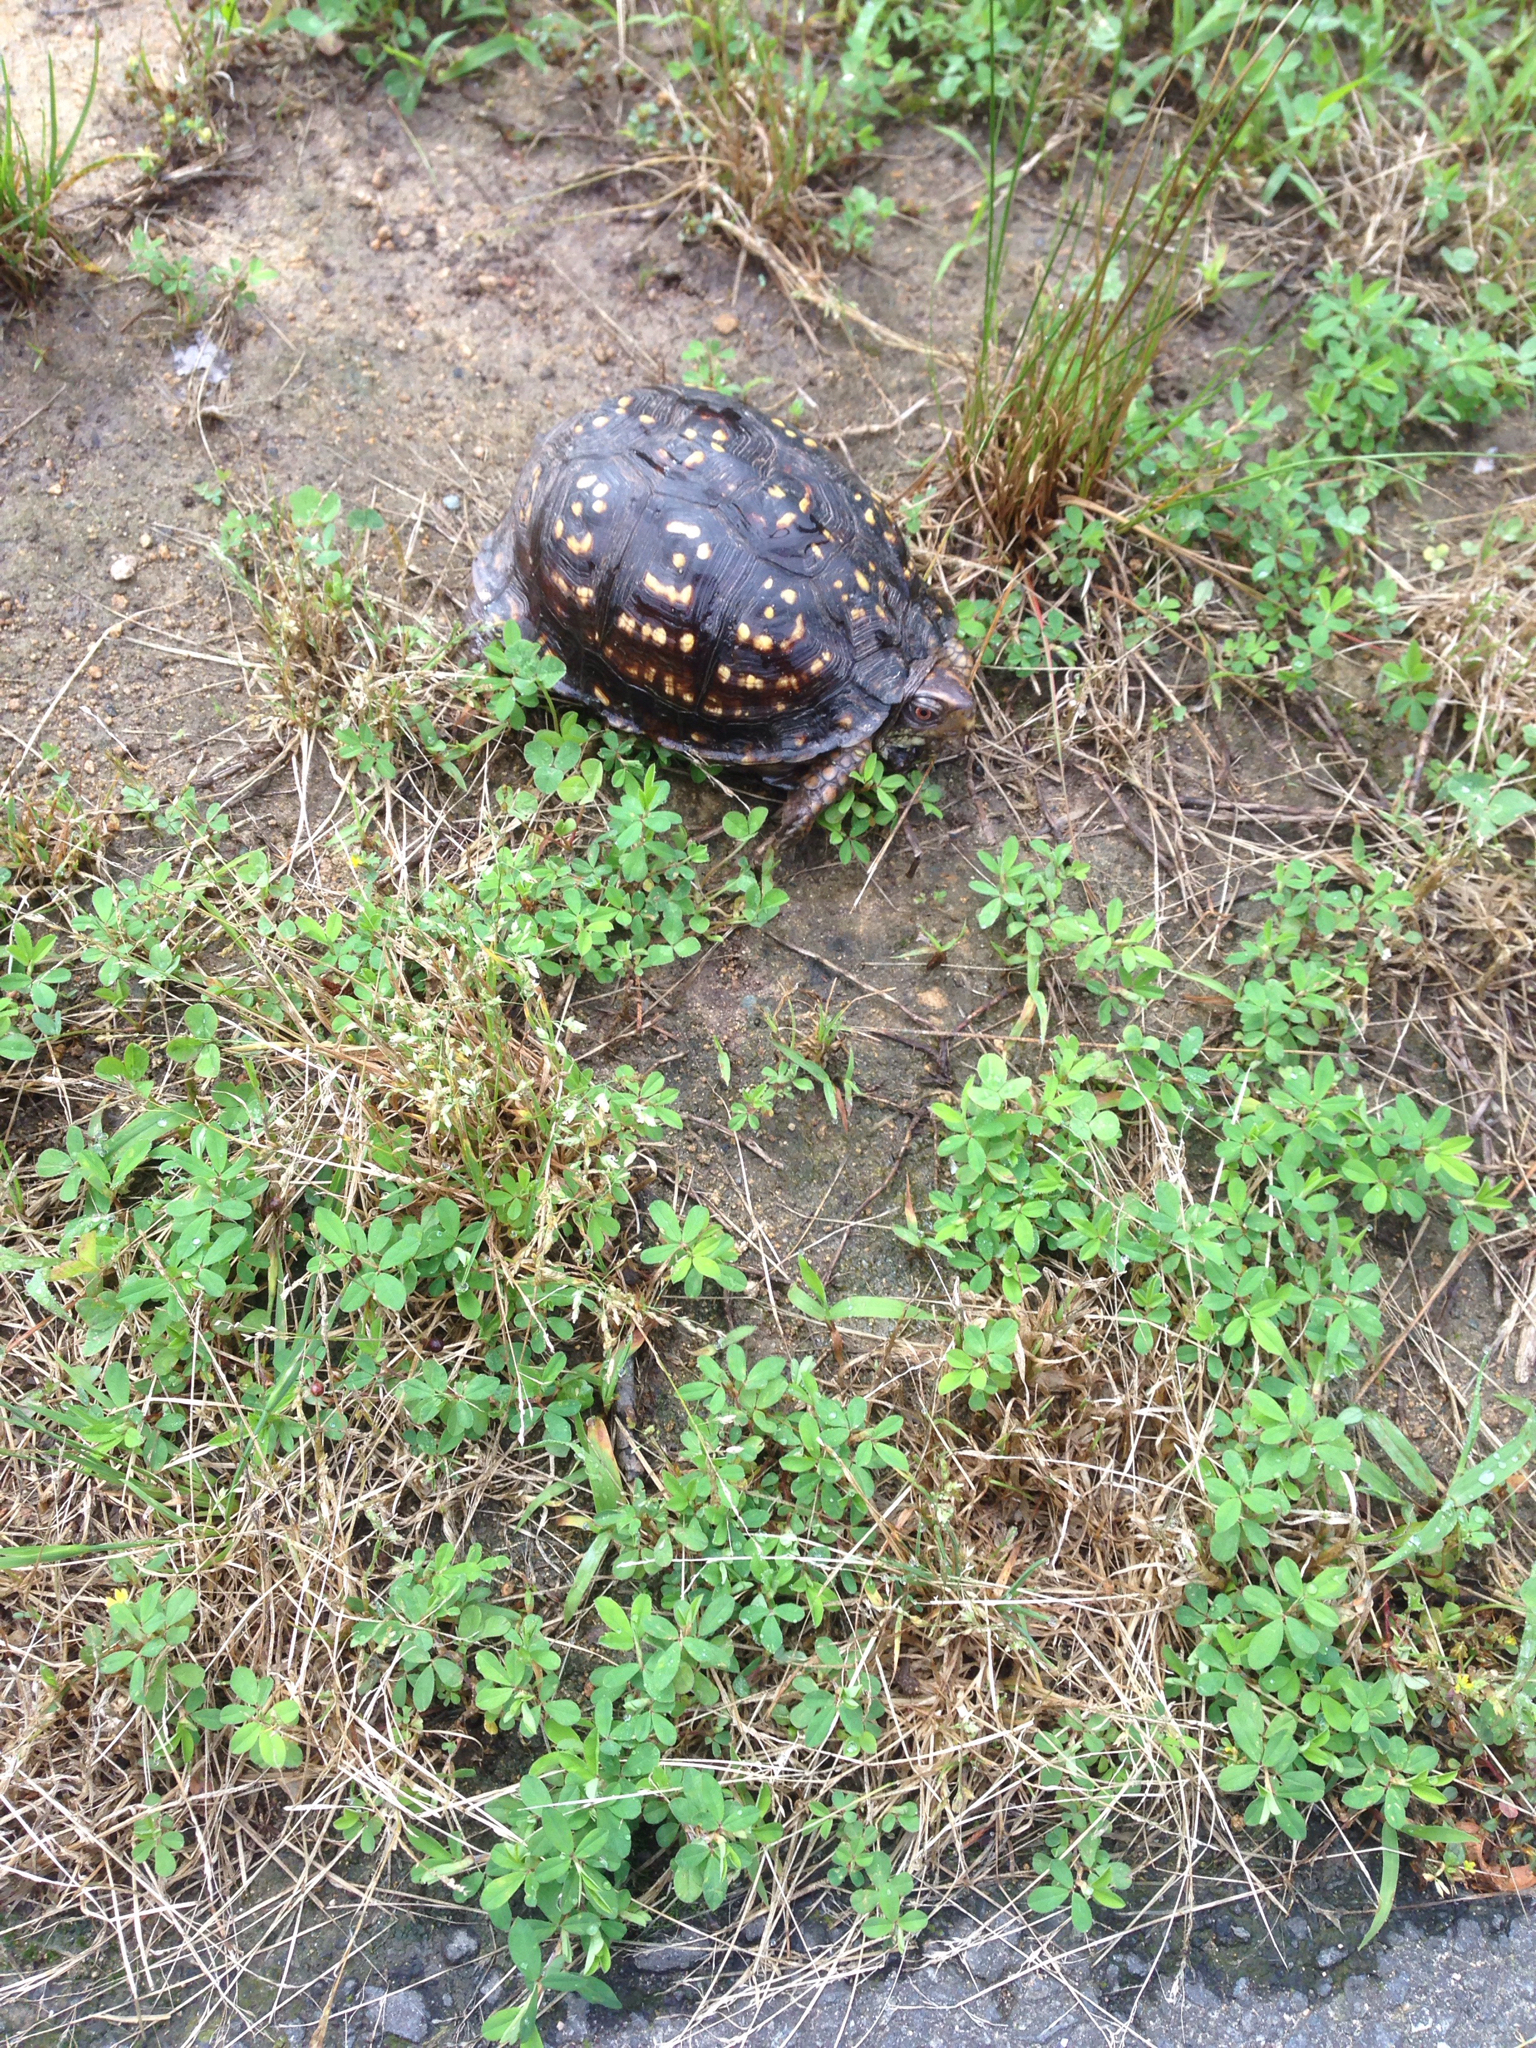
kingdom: Animalia
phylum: Chordata
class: Testudines
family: Emydidae
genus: Terrapene
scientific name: Terrapene carolina
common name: Common box turtle
